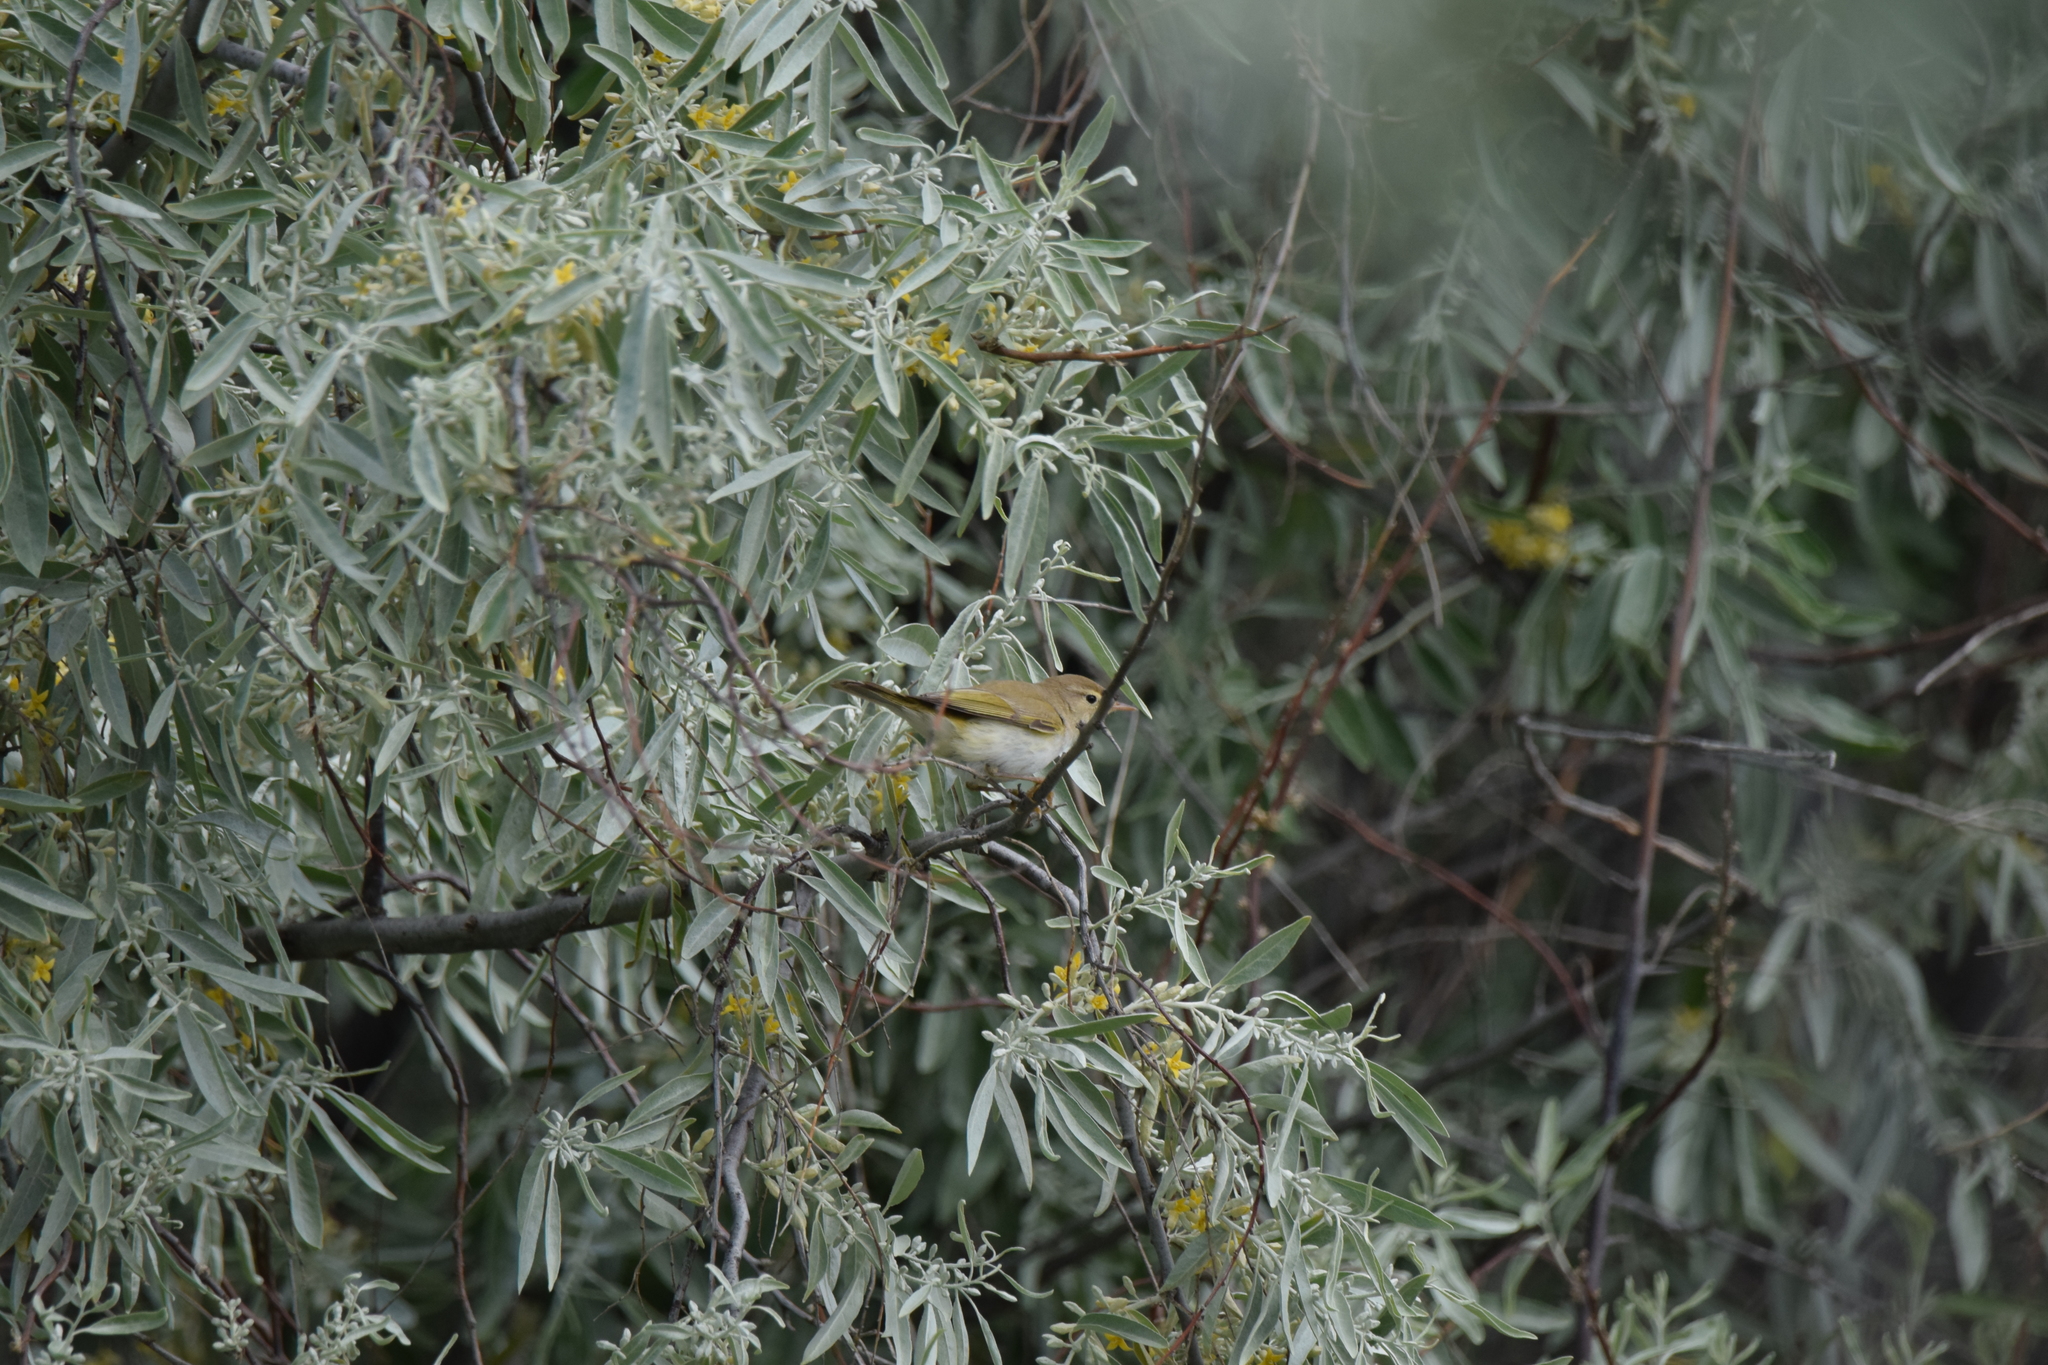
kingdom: Animalia
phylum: Chordata
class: Aves
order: Passeriformes
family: Phylloscopidae
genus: Phylloscopus
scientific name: Phylloscopus bonelli
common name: Western bonelli's warbler
